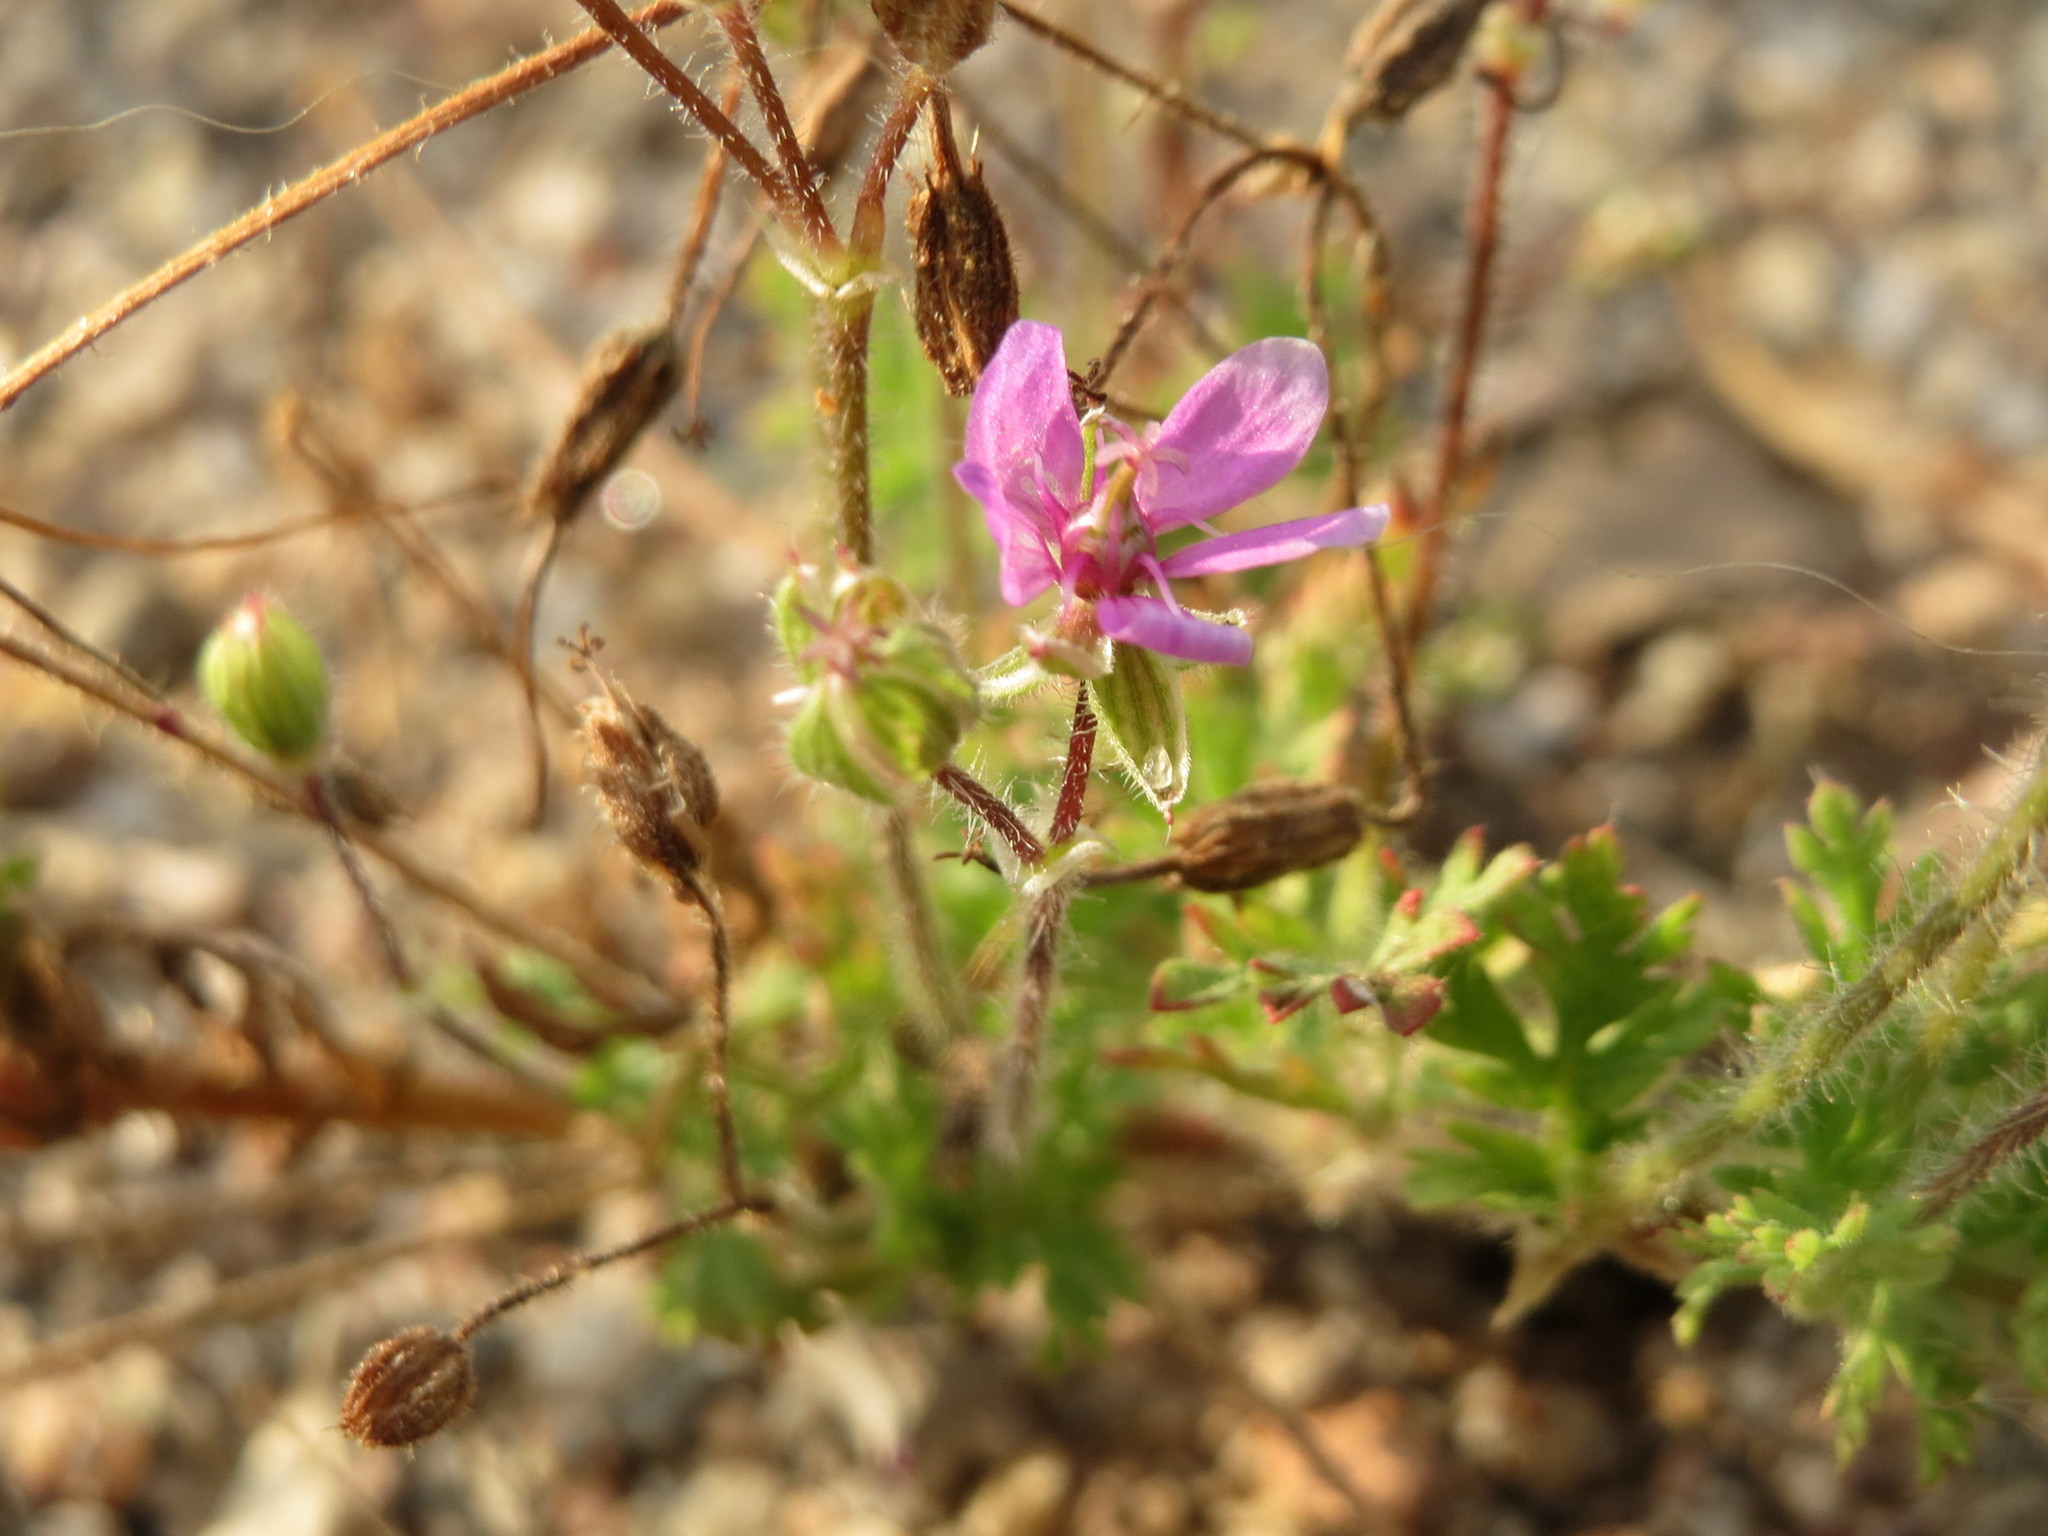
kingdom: Plantae
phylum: Tracheophyta
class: Magnoliopsida
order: Geraniales
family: Geraniaceae
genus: Erodium
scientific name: Erodium cicutarium
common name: Common stork's-bill
